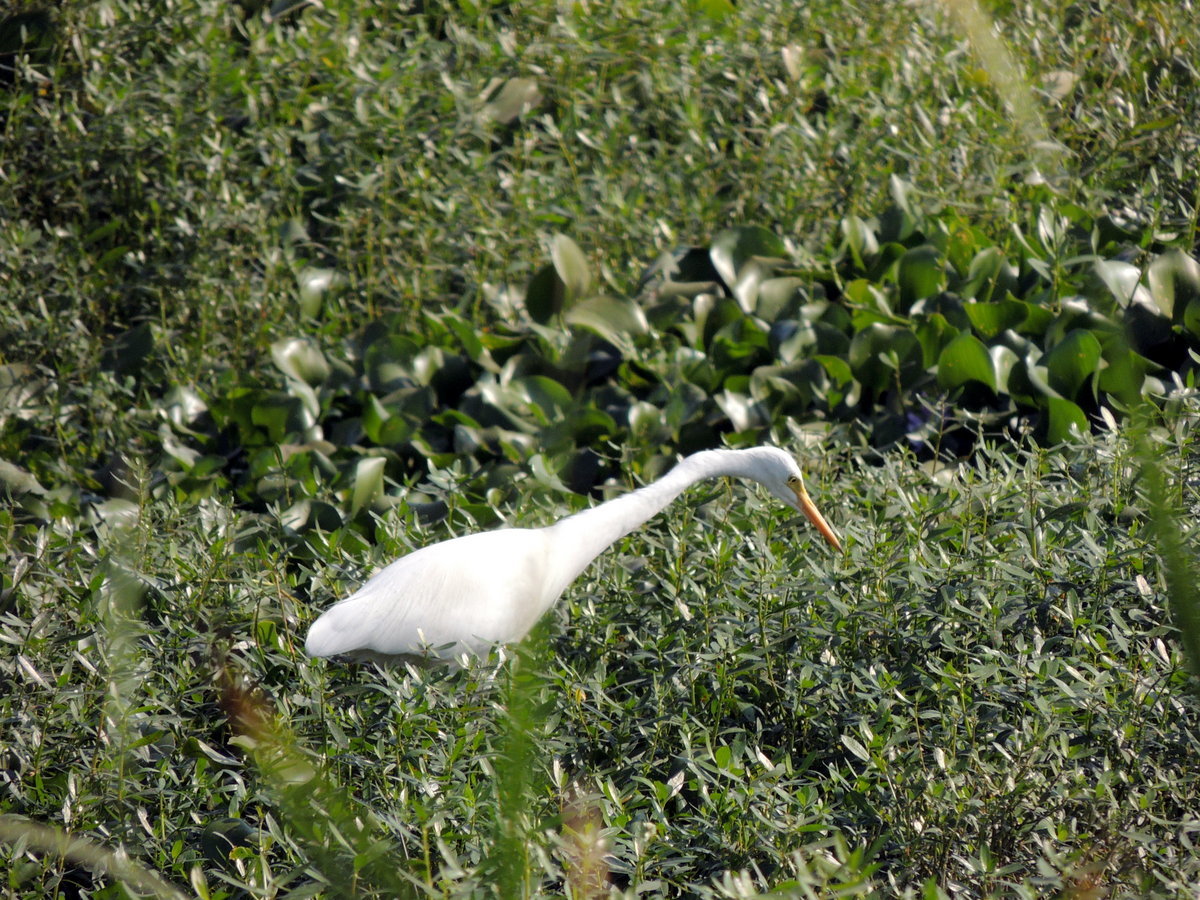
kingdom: Animalia
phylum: Chordata
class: Aves
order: Pelecaniformes
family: Ardeidae
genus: Ardea
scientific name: Ardea alba
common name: Great egret
